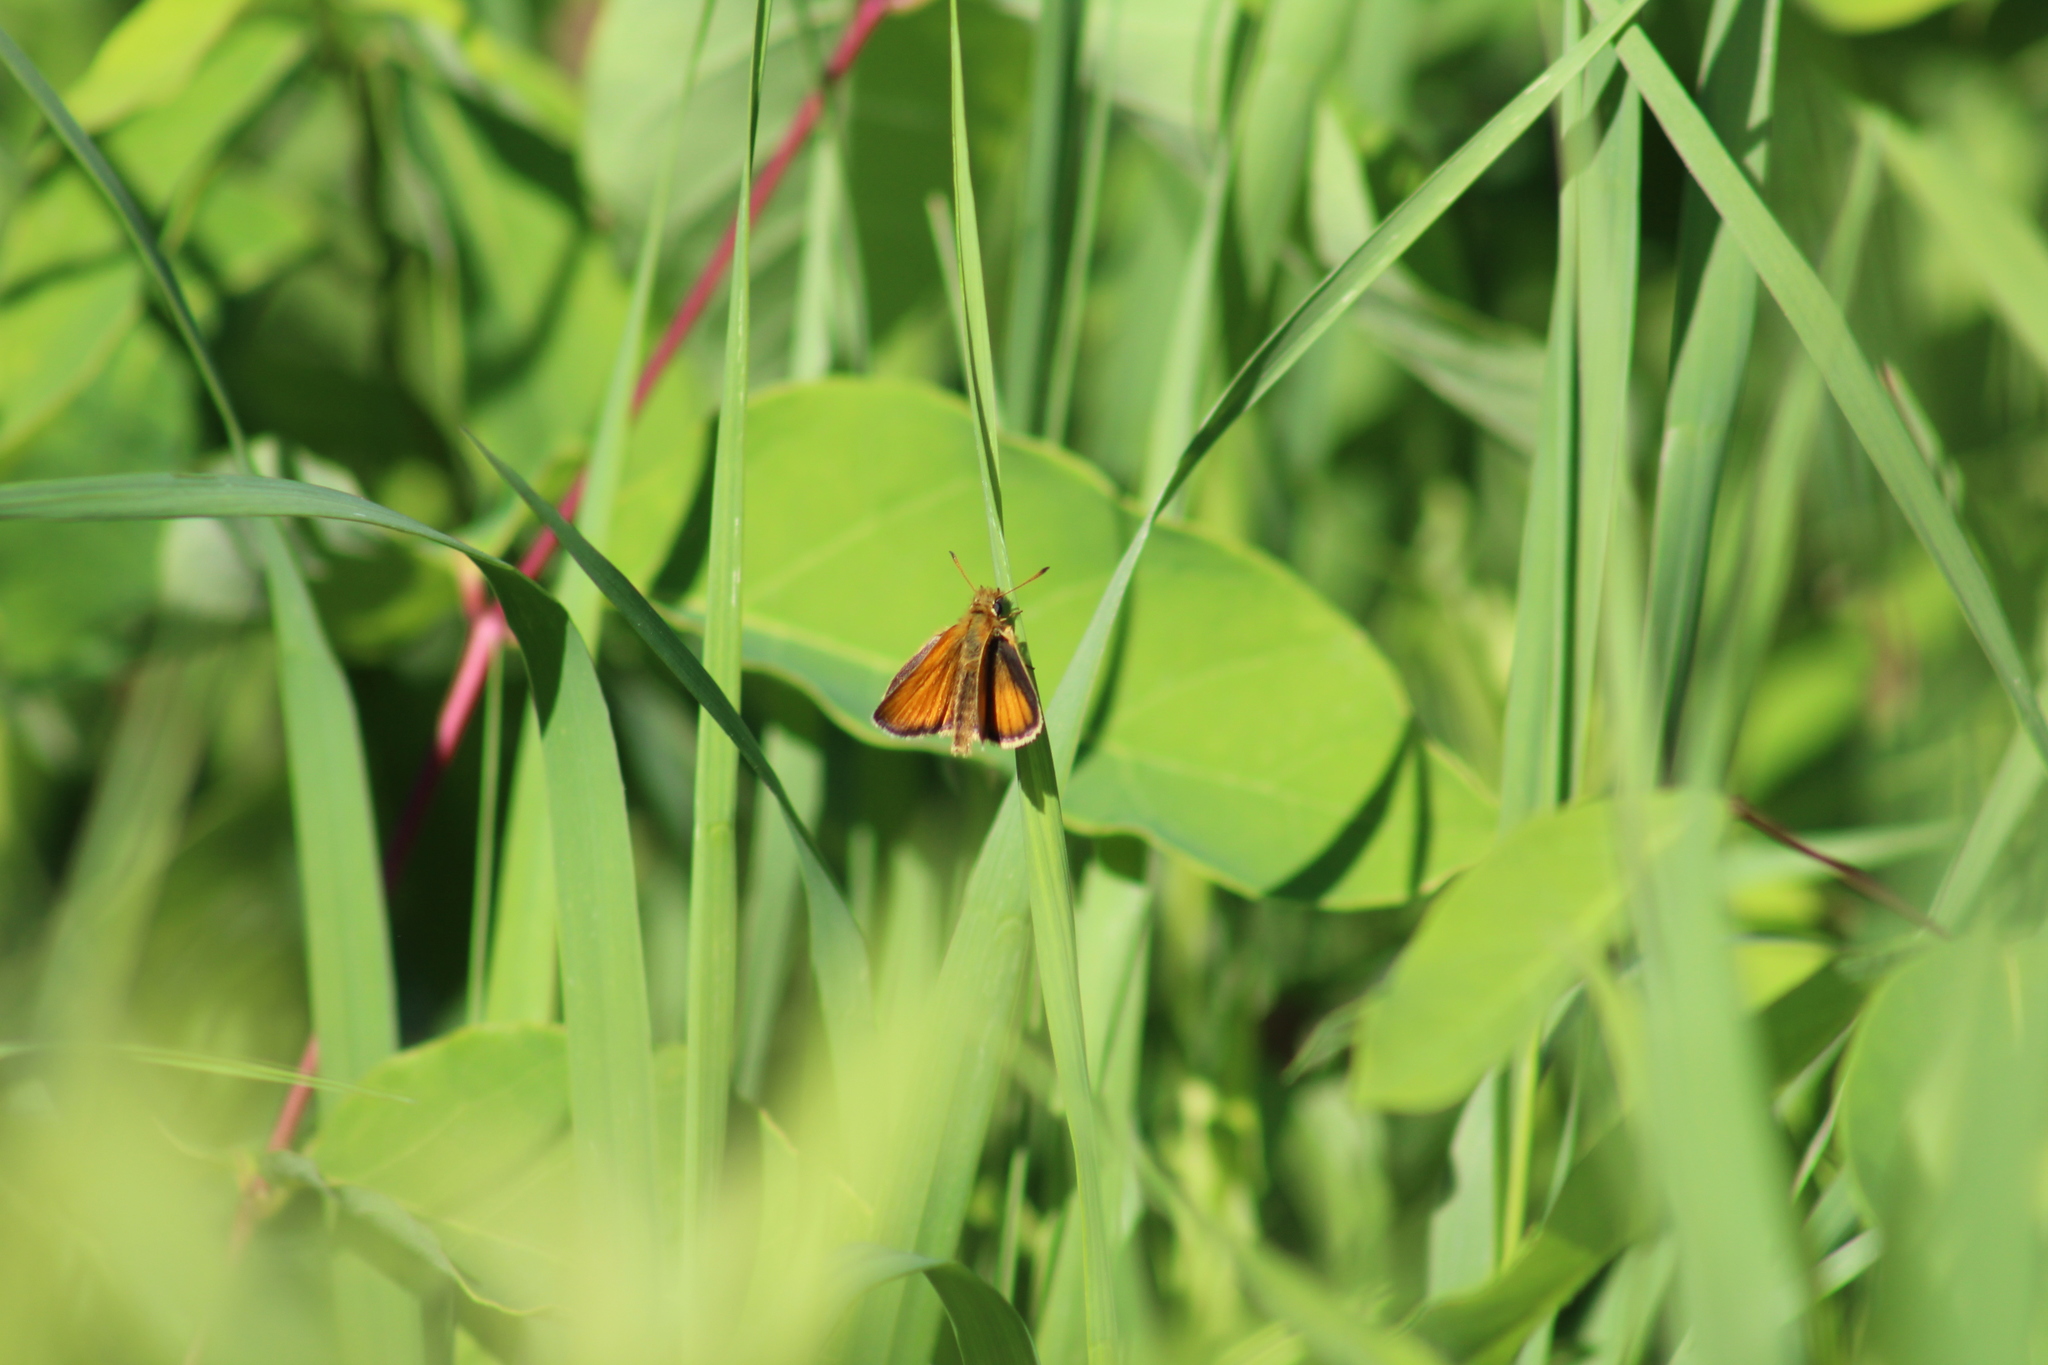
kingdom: Animalia
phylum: Arthropoda
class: Insecta
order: Lepidoptera
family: Hesperiidae
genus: Thymelicus
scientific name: Thymelicus lineola
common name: Essex skipper
